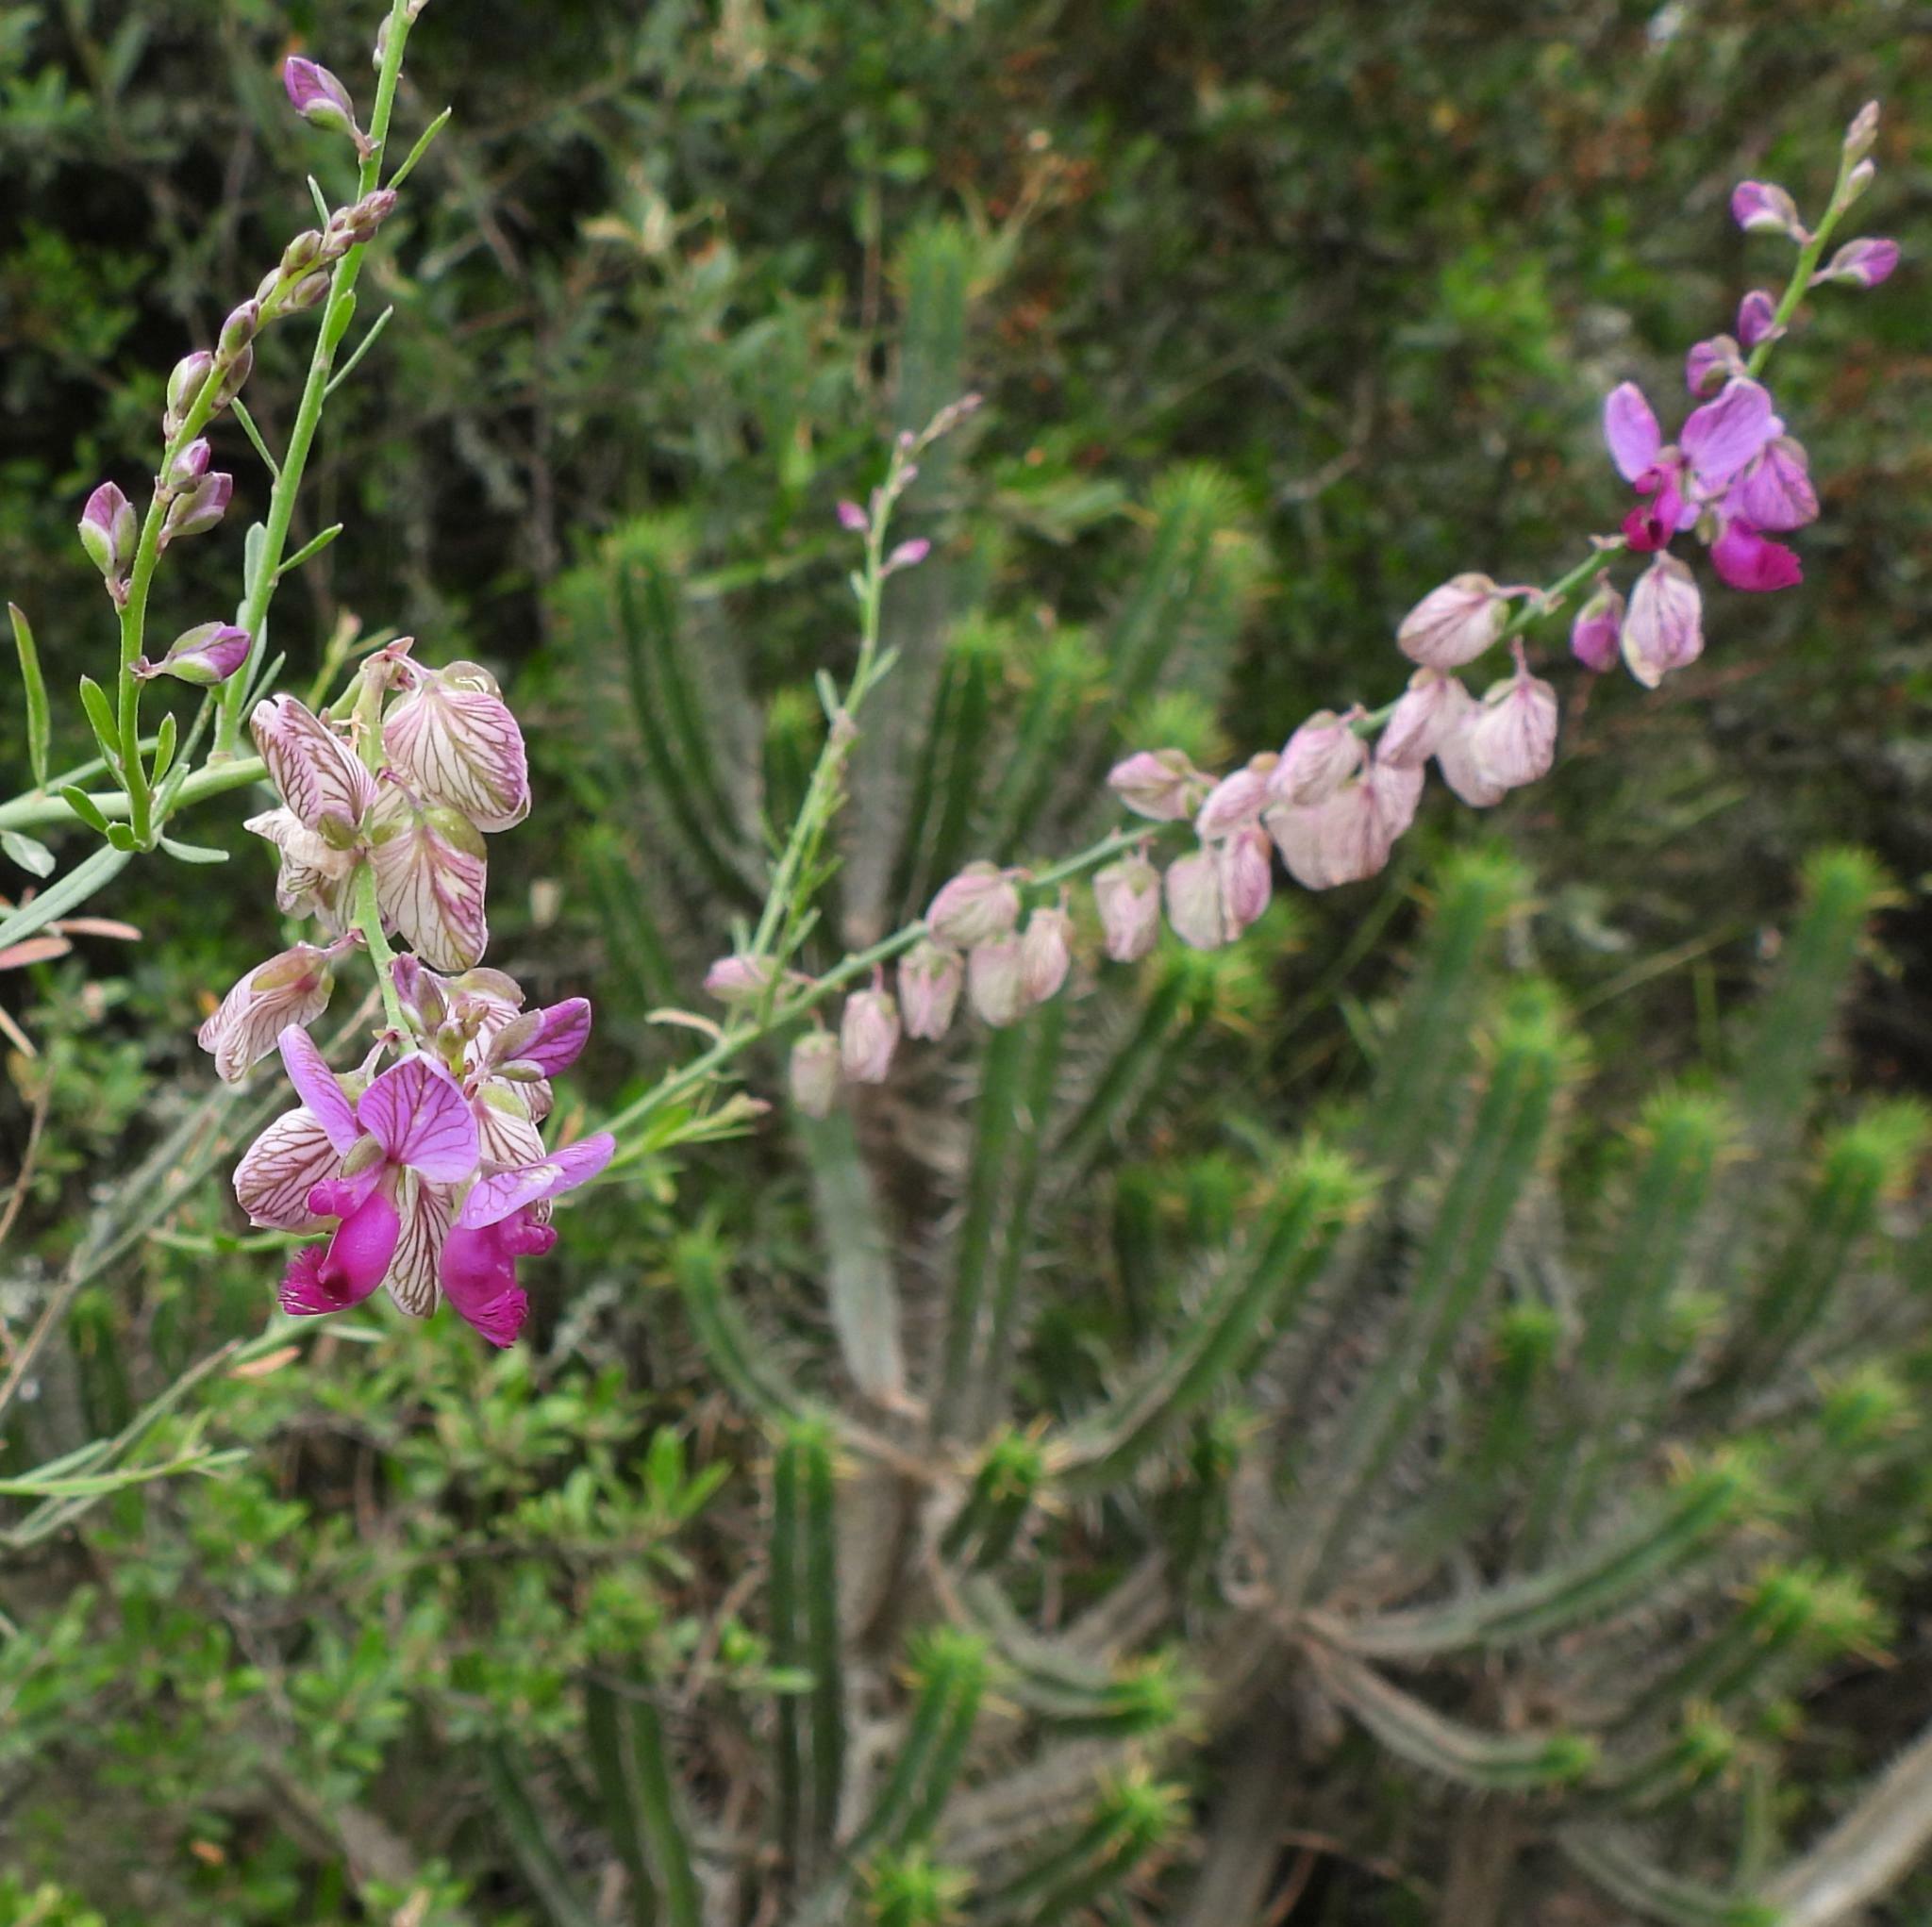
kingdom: Plantae
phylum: Tracheophyta
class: Magnoliopsida
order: Fabales
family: Polygalaceae
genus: Polygala
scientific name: Polygala virgata
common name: Milkwort
